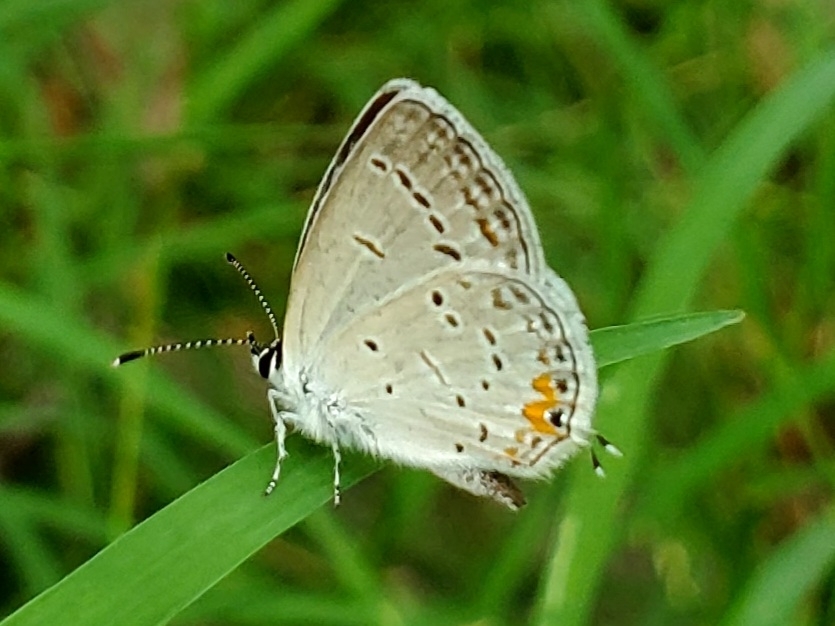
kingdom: Animalia
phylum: Arthropoda
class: Insecta
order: Lepidoptera
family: Lycaenidae
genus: Elkalyce
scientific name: Elkalyce comyntas
